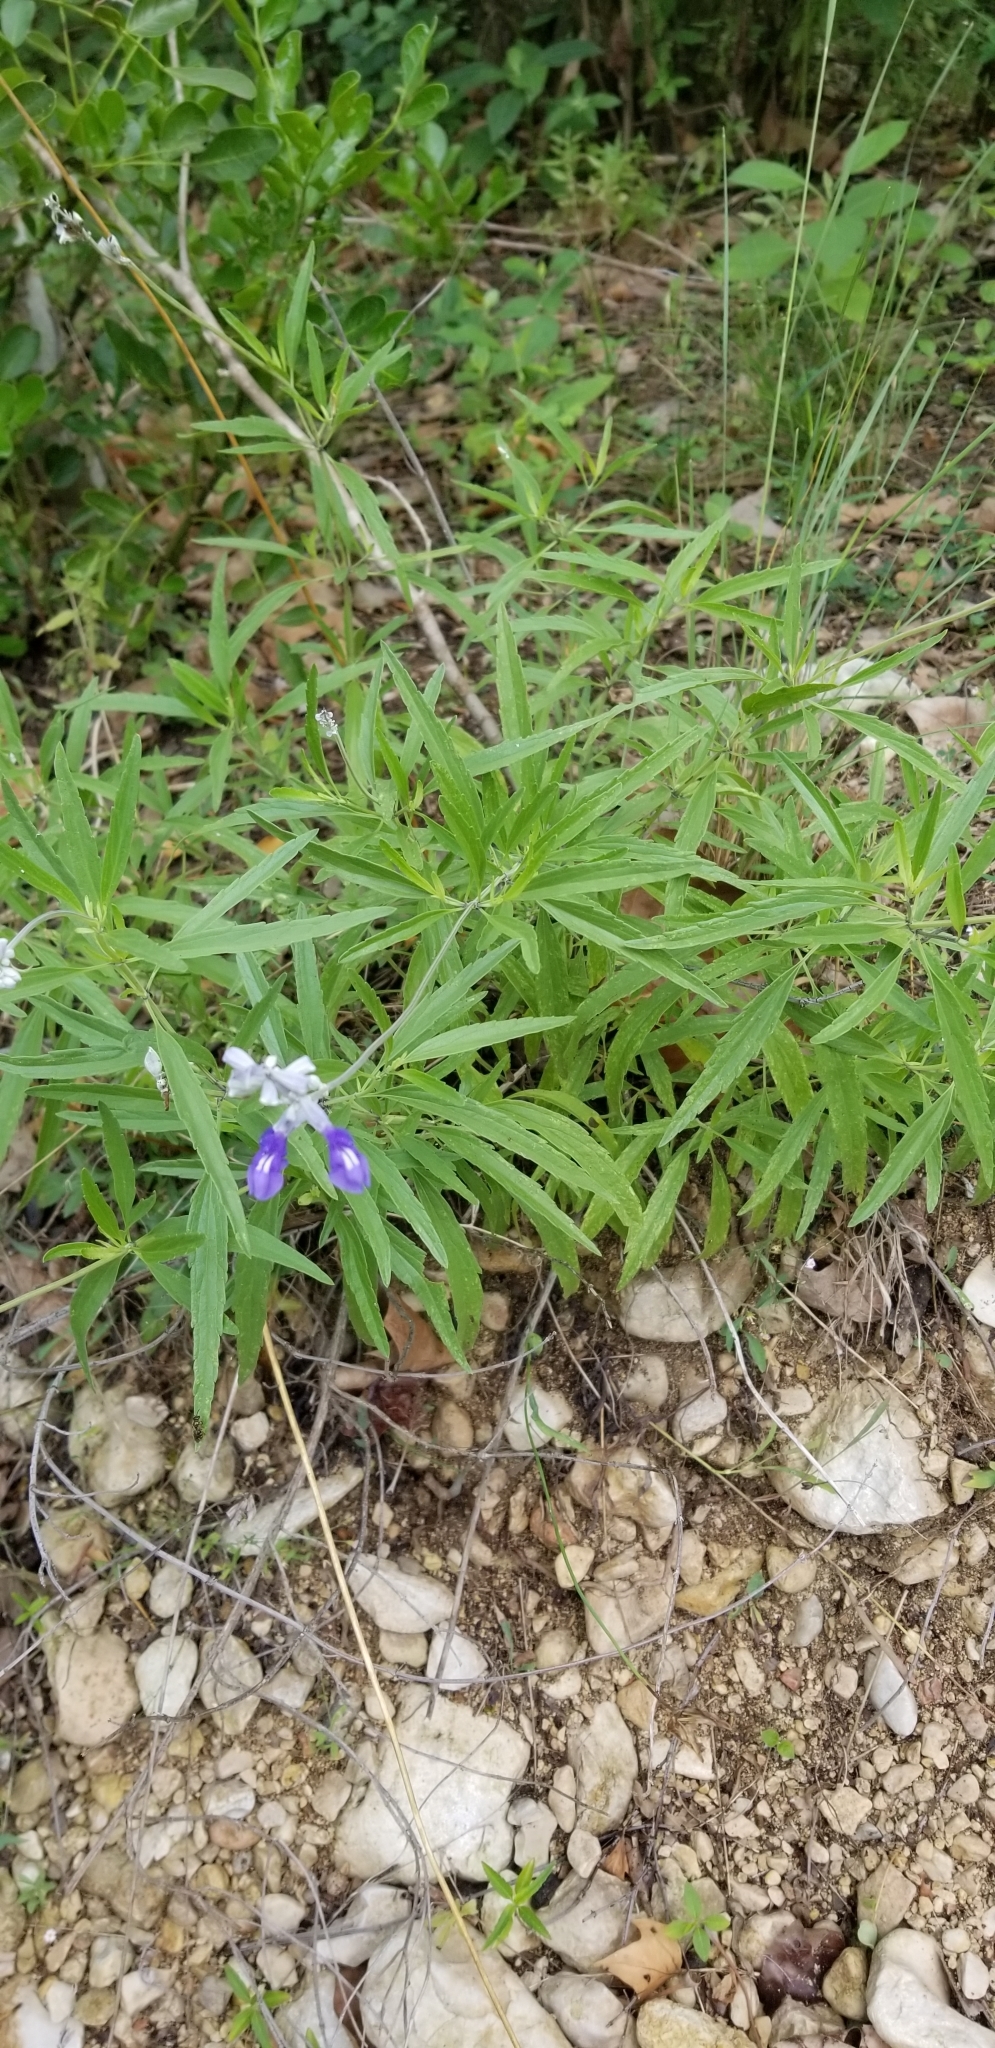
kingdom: Plantae
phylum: Tracheophyta
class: Magnoliopsida
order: Lamiales
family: Lamiaceae
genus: Salvia
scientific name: Salvia farinacea
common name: Mealy sage
